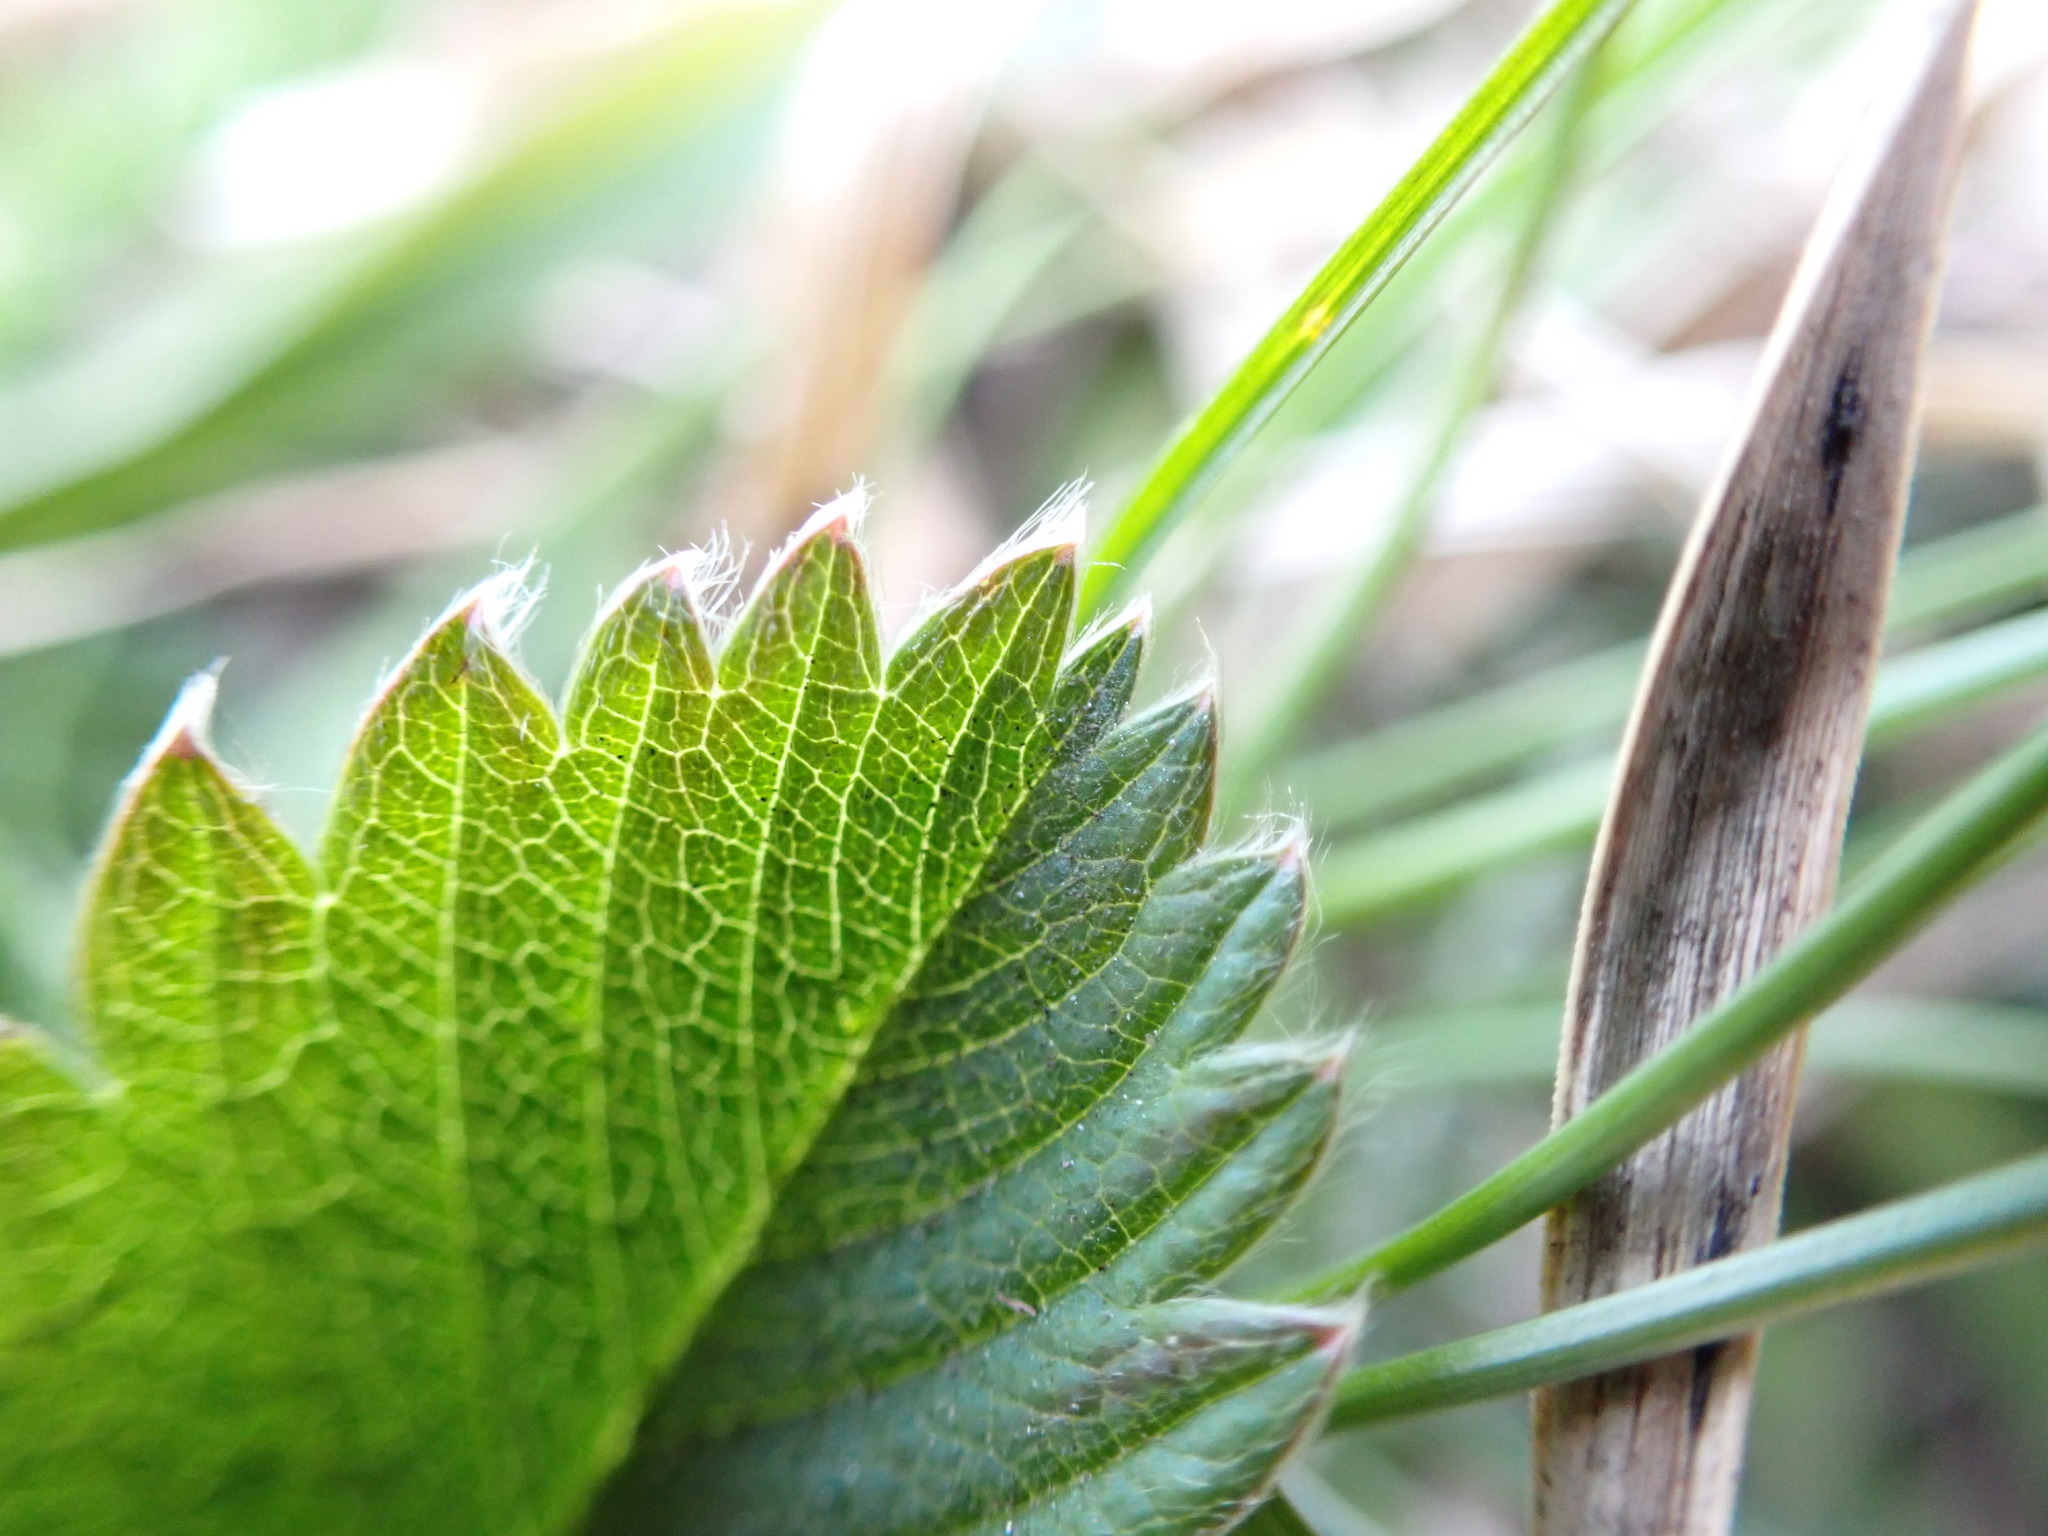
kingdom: Plantae
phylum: Tracheophyta
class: Magnoliopsida
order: Rosales
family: Rosaceae
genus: Fragaria
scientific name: Fragaria viridis
